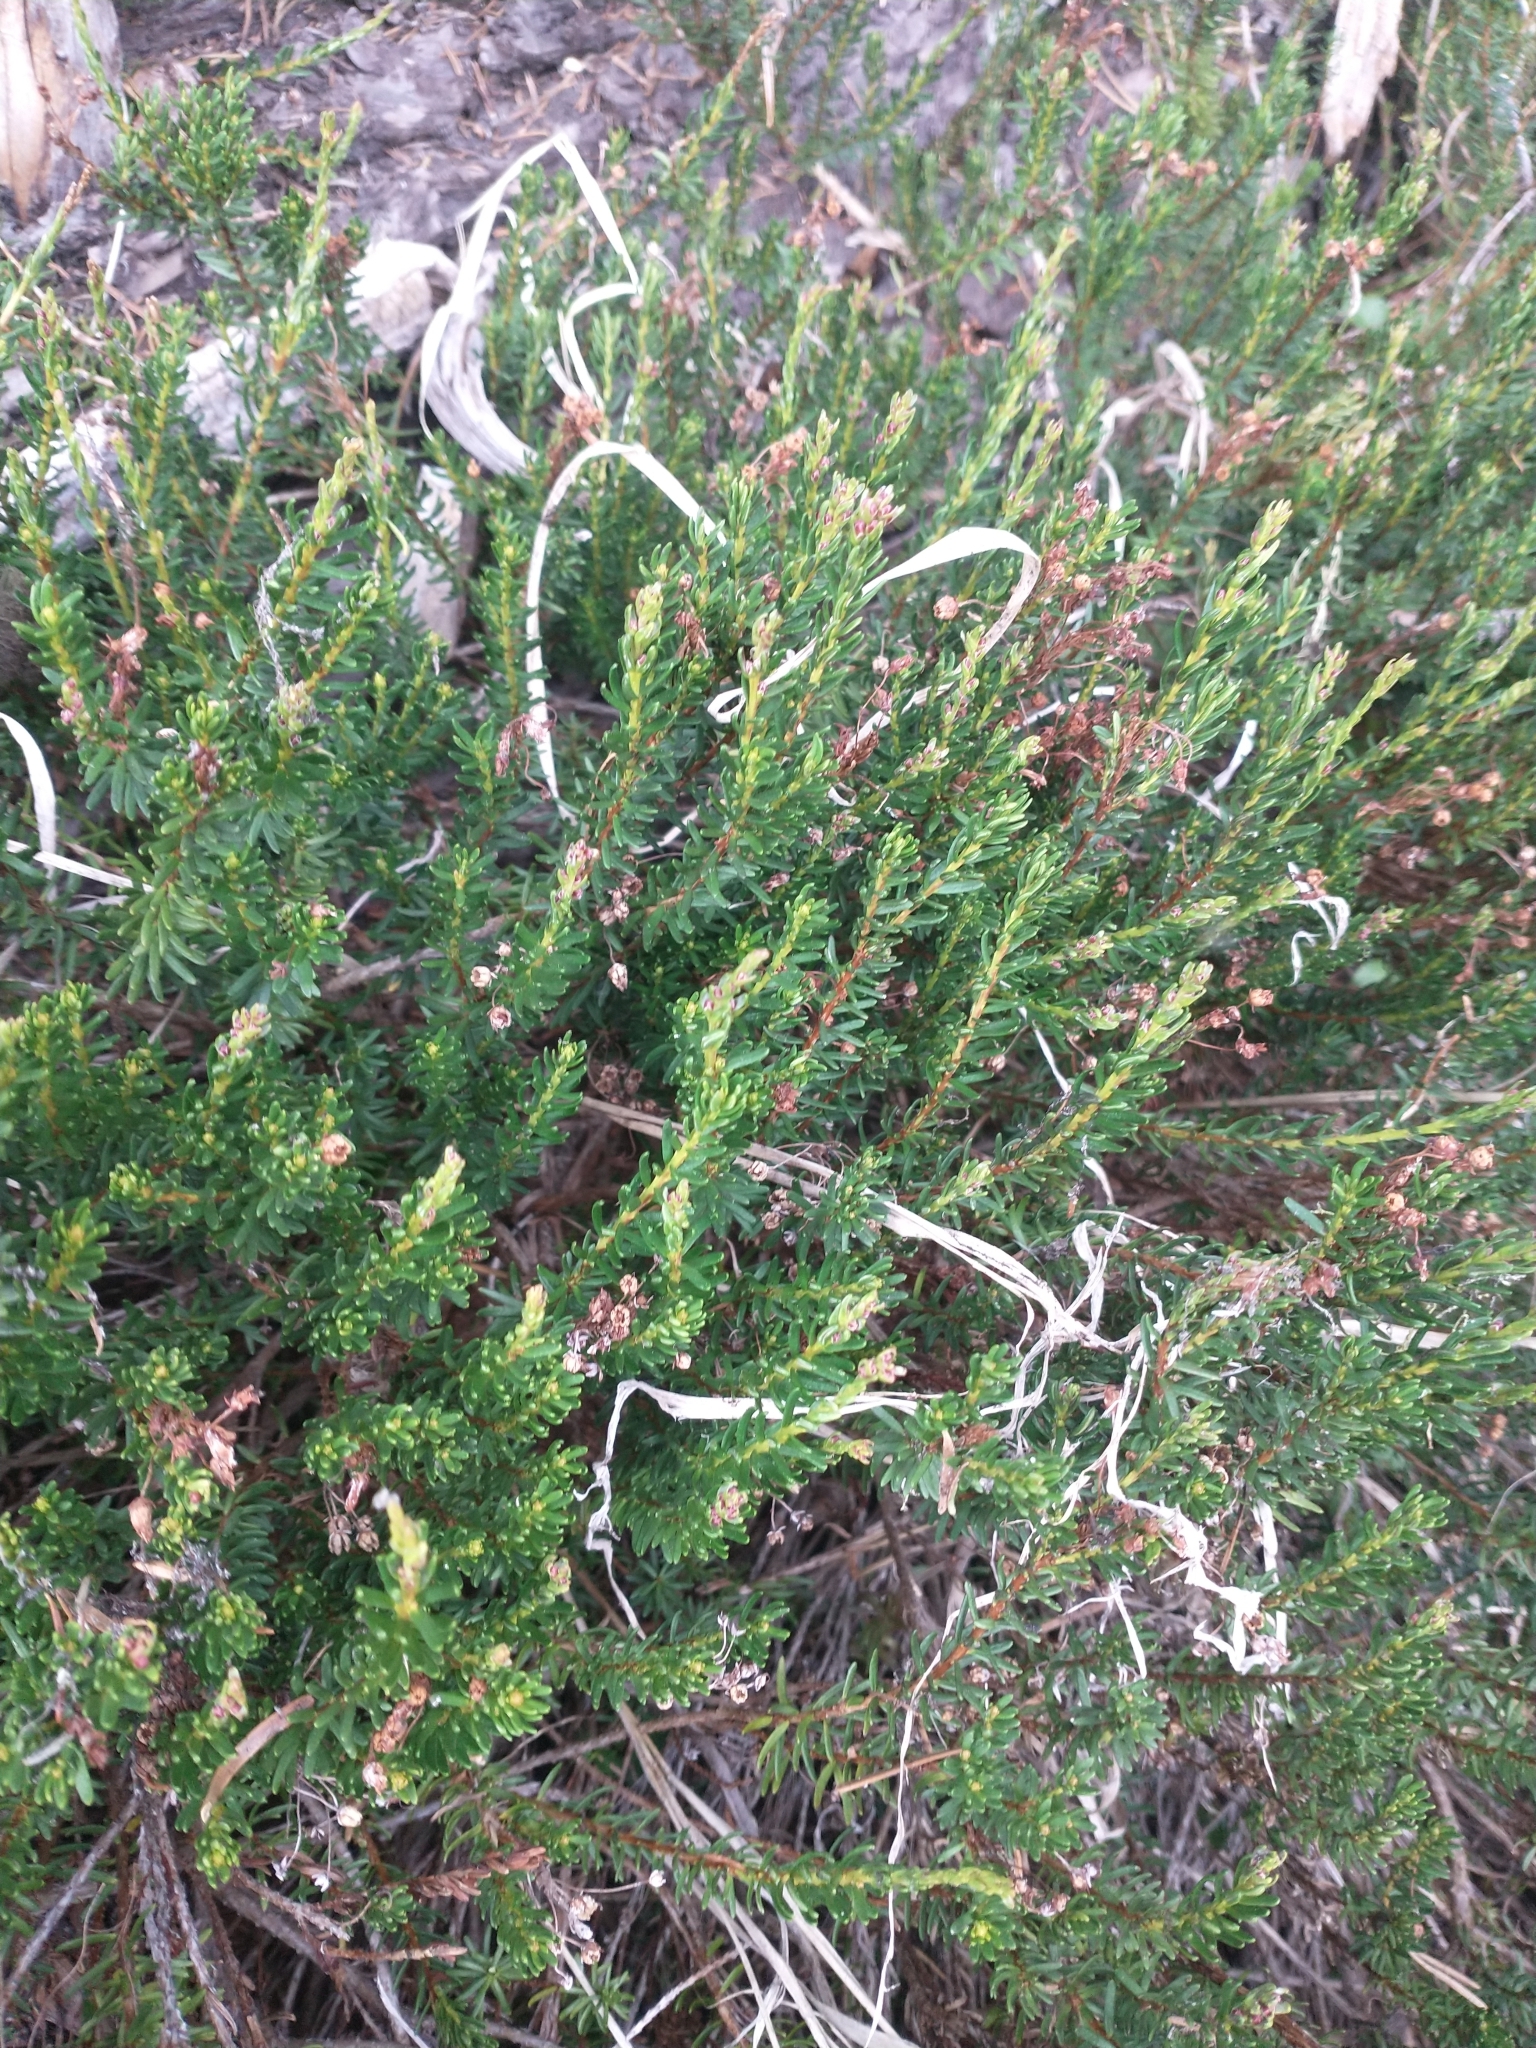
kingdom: Plantae
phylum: Tracheophyta
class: Magnoliopsida
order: Ericales
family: Ericaceae
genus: Phyllodoce
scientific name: Phyllodoce empetriformis
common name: Pink mountain heather
